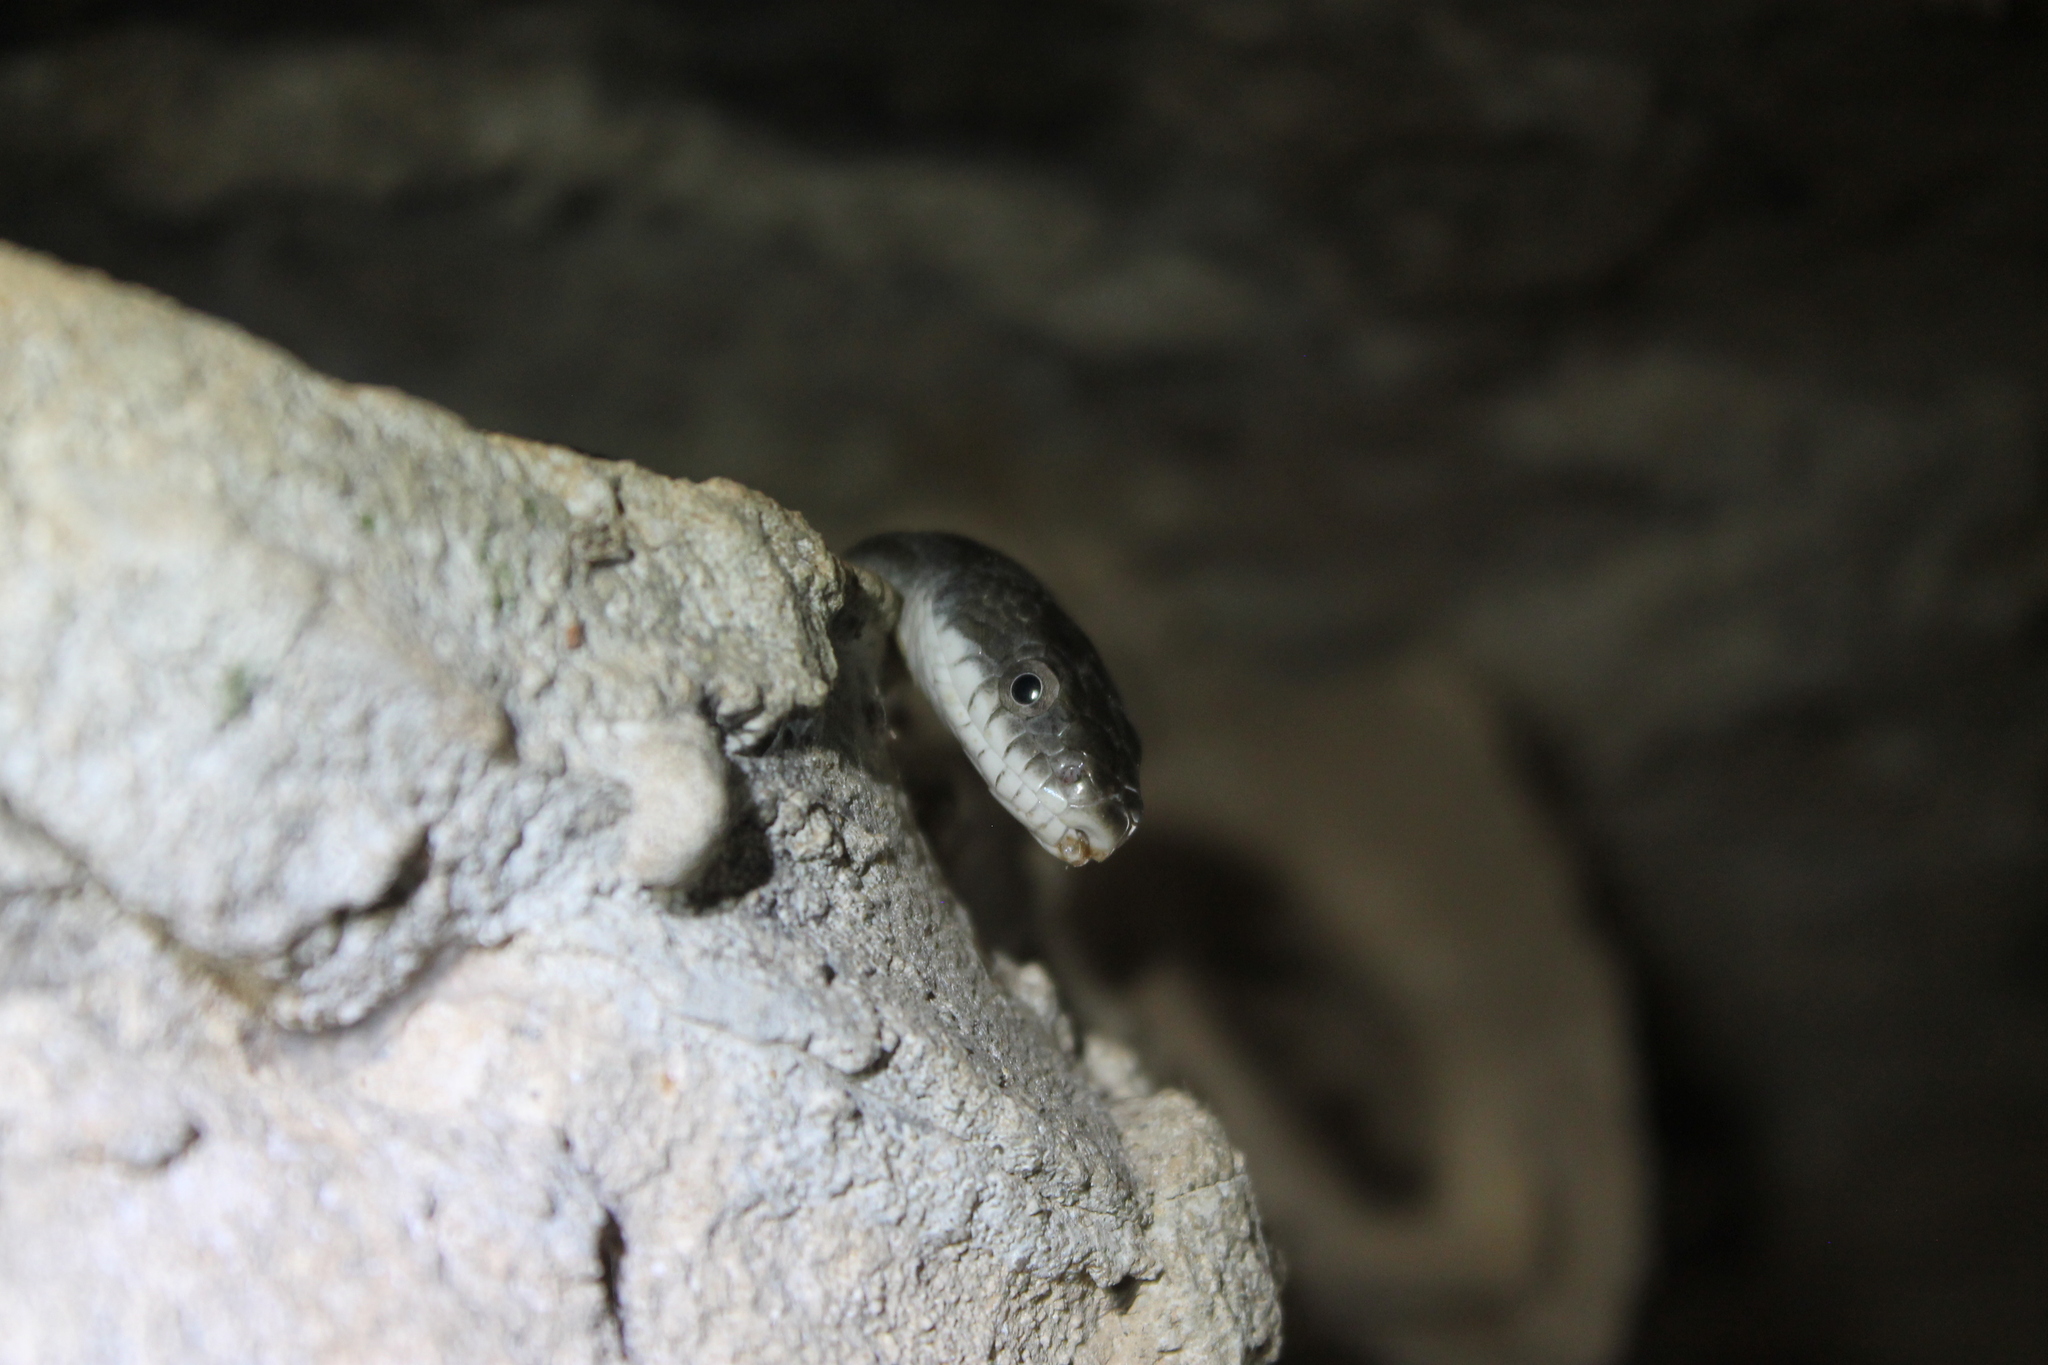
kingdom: Animalia
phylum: Chordata
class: Squamata
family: Colubridae
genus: Pantherophis
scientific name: Pantherophis spiloides
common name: Gray rat snake
